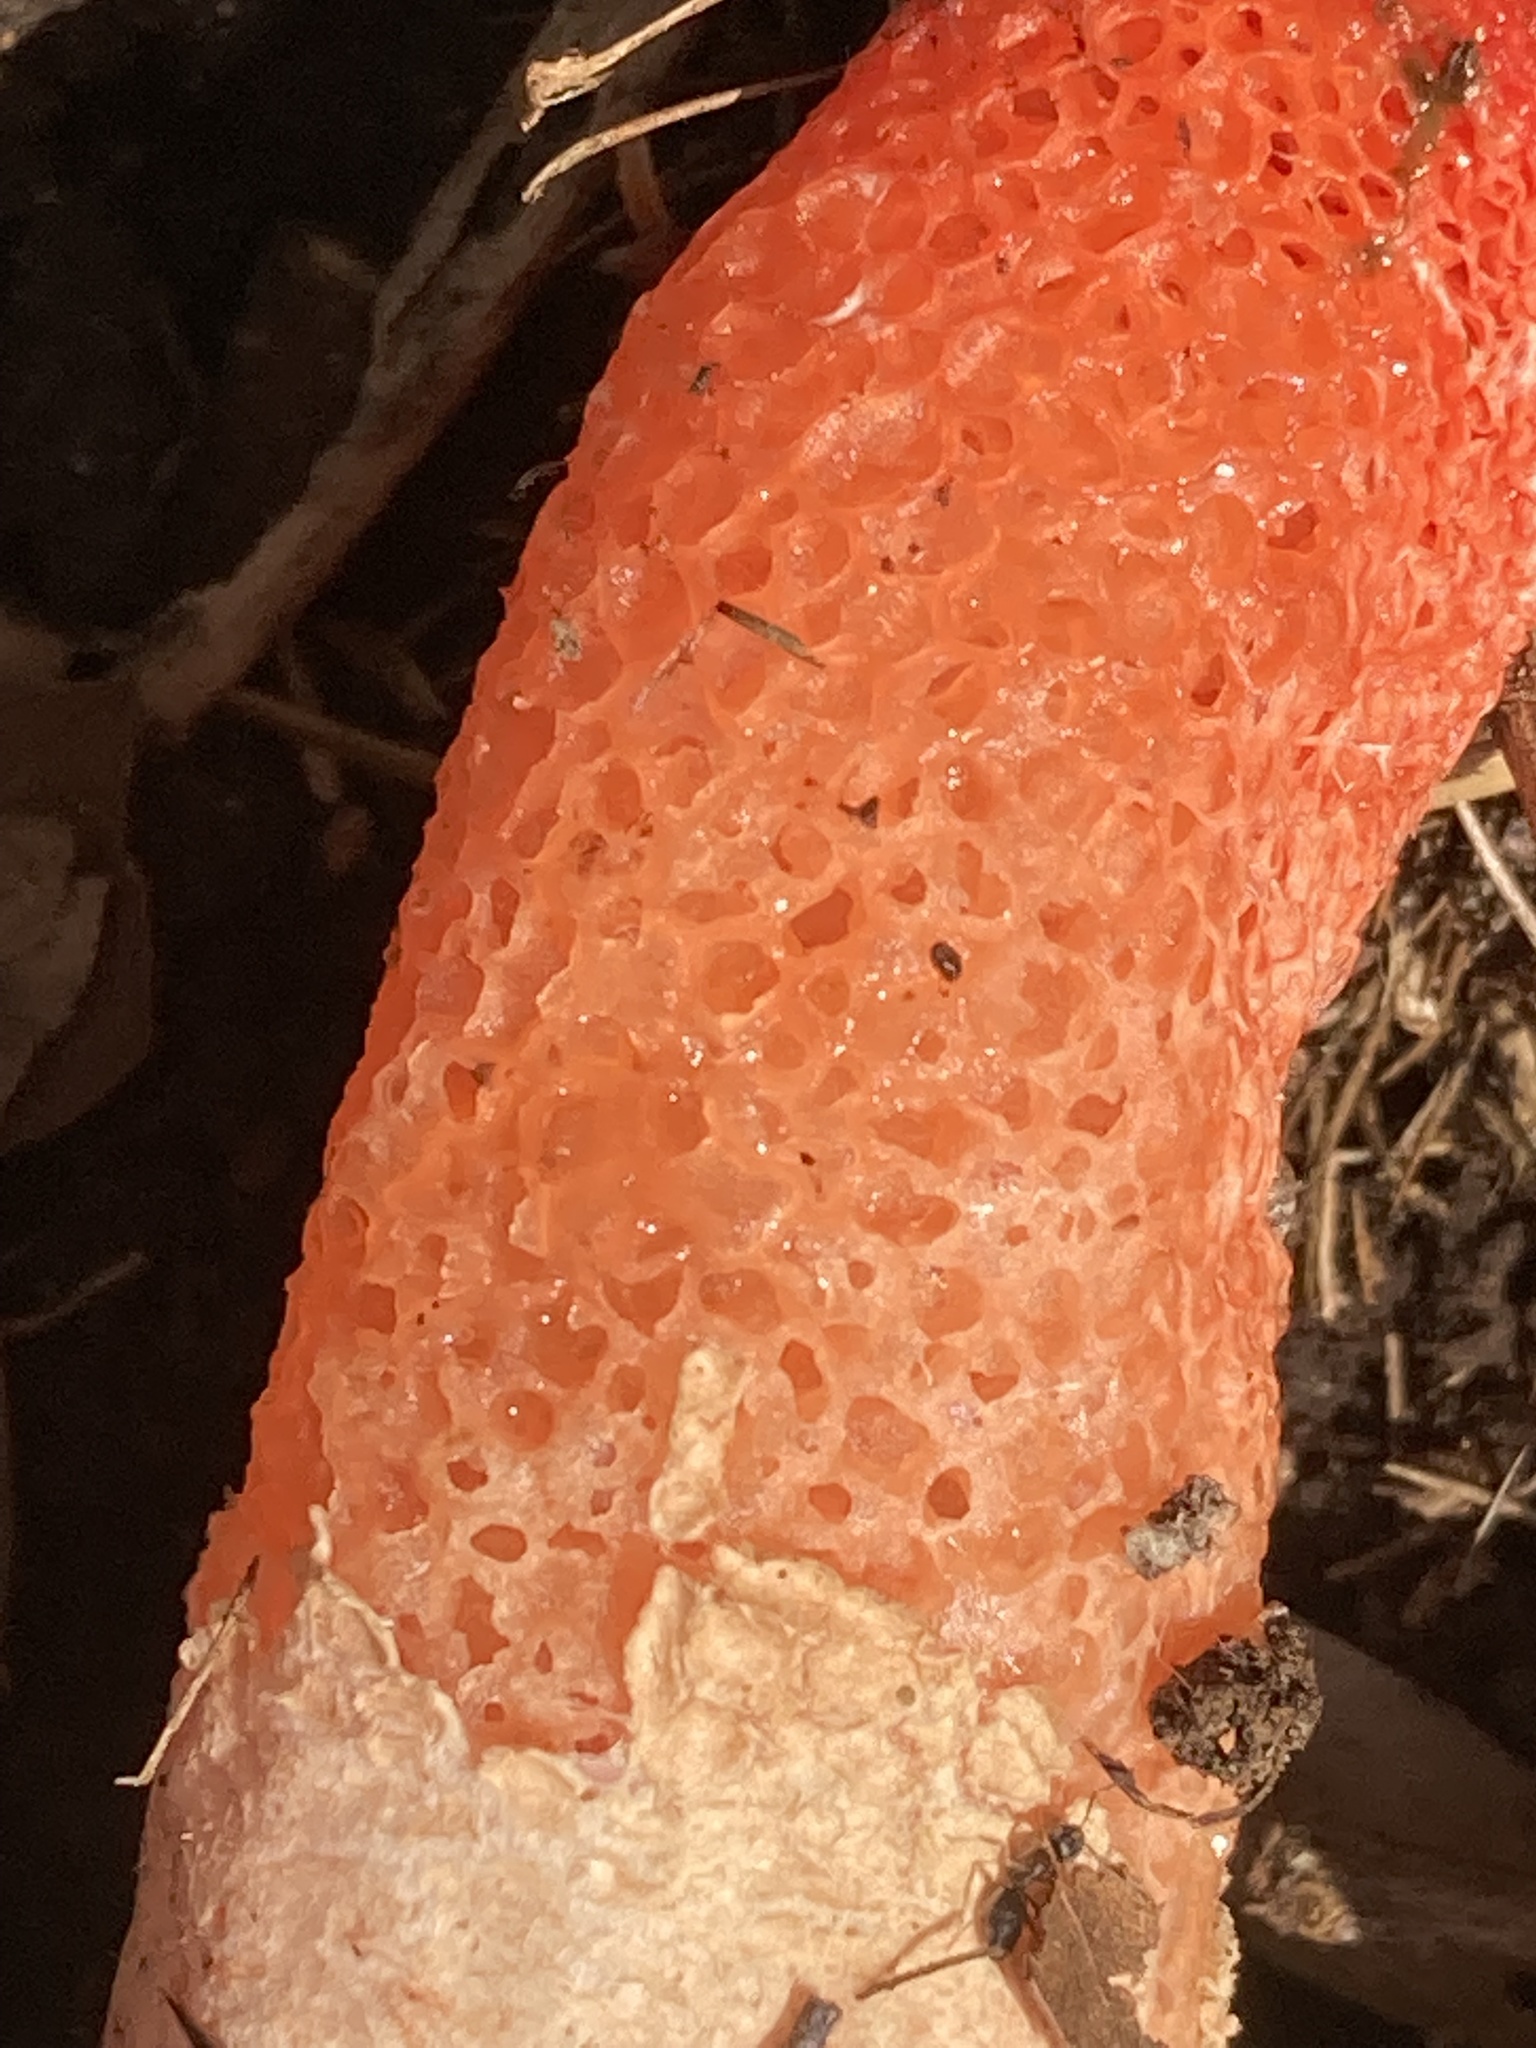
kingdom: Fungi
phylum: Basidiomycota
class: Agaricomycetes
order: Phallales
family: Phallaceae
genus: Mutinus
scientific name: Mutinus elegans
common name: Devil's dipstick
